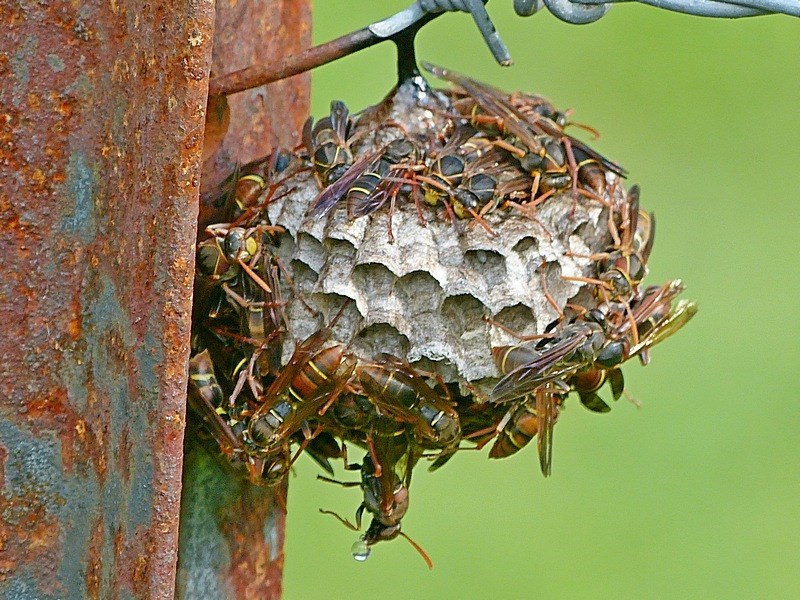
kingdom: Animalia
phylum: Arthropoda
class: Insecta
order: Hymenoptera
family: Eumenidae
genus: Polistes
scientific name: Polistes humilis
